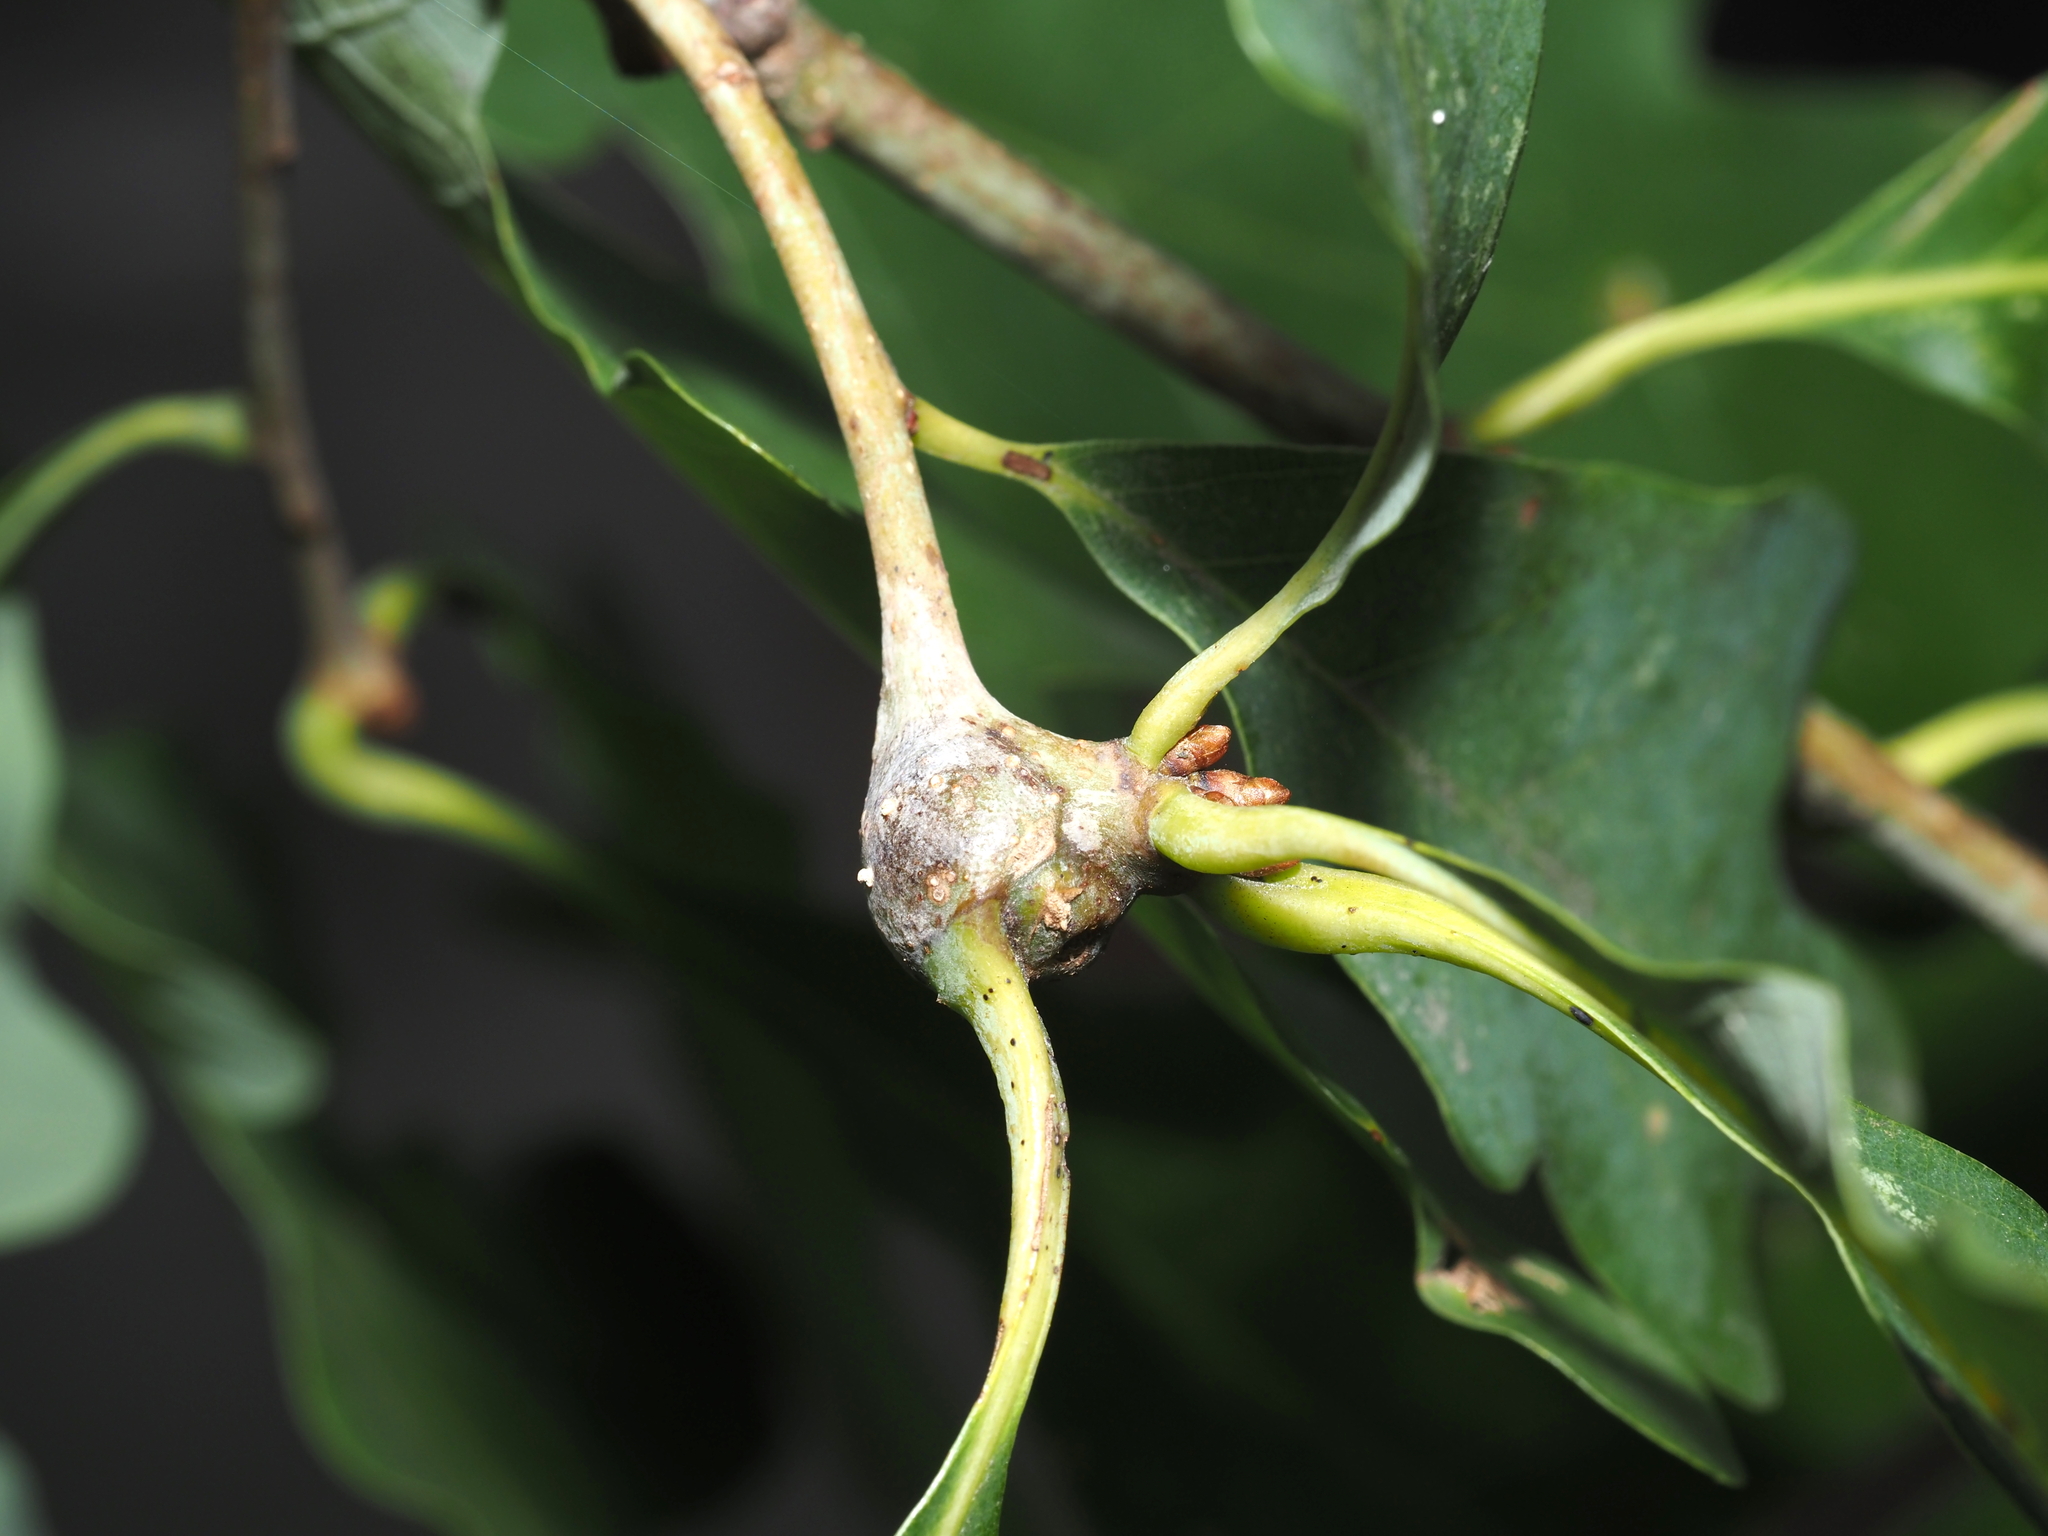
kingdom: Animalia
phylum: Arthropoda
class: Insecta
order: Hymenoptera
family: Cynipidae
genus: Callirhytis
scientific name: Callirhytis clavula
